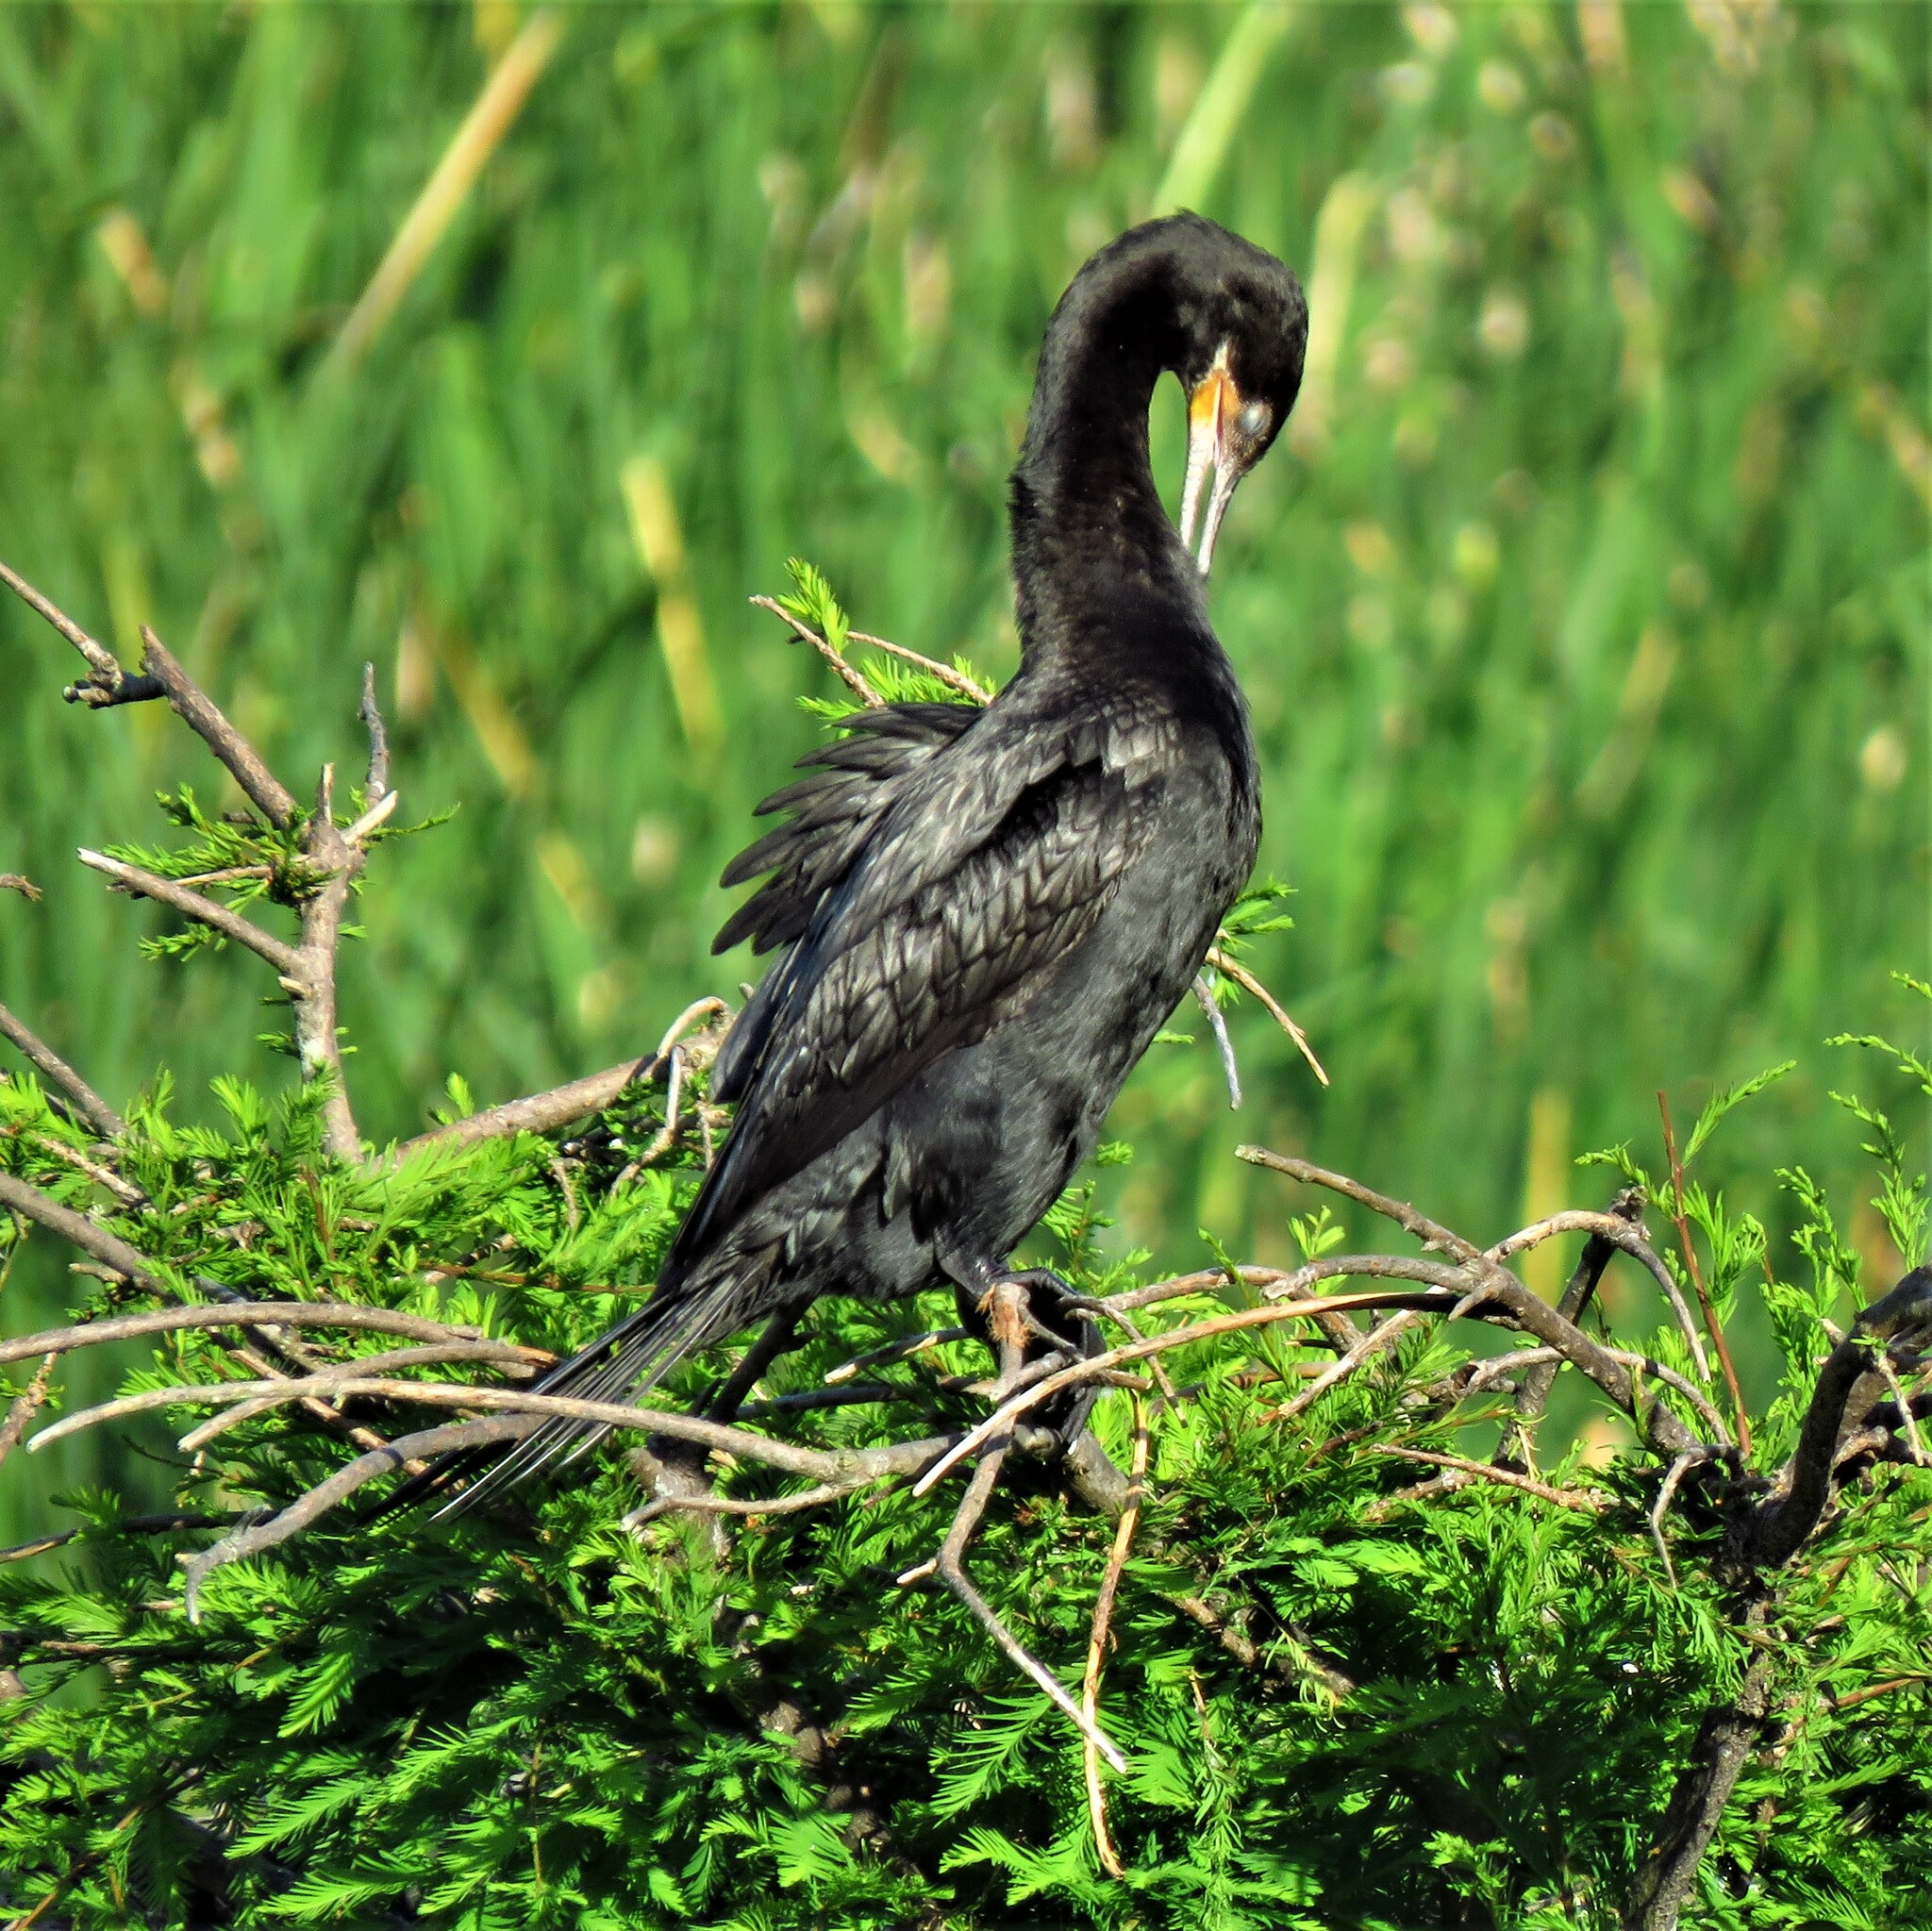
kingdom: Animalia
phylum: Chordata
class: Aves
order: Suliformes
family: Phalacrocoracidae
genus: Phalacrocorax
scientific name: Phalacrocorax brasilianus
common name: Neotropic cormorant
